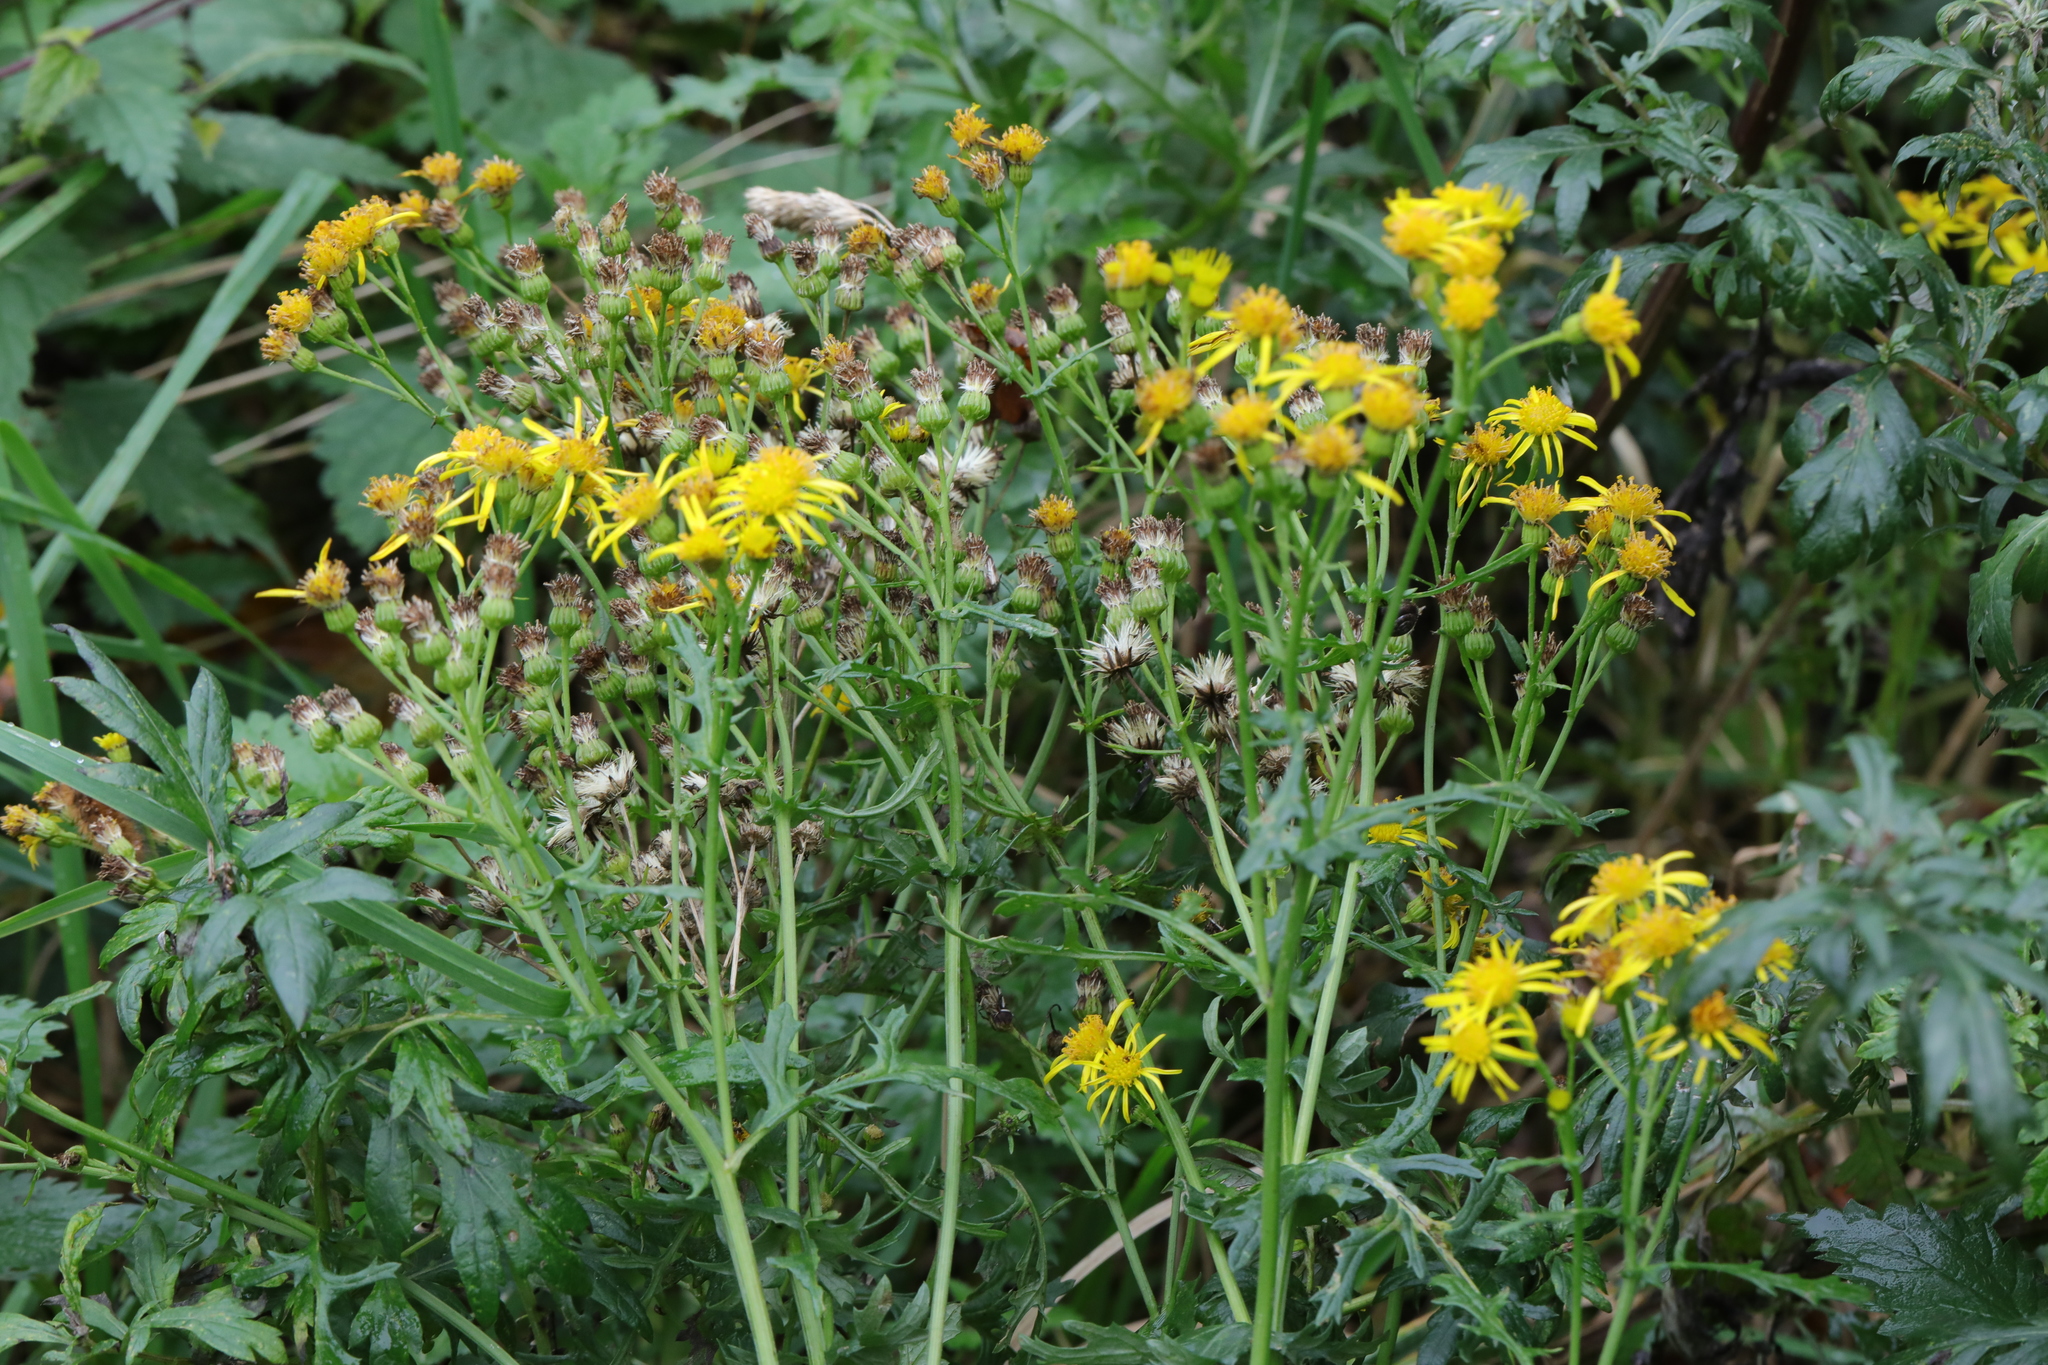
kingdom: Plantae
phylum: Tracheophyta
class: Magnoliopsida
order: Asterales
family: Asteraceae
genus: Jacobaea
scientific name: Jacobaea vulgaris
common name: Stinking willie
